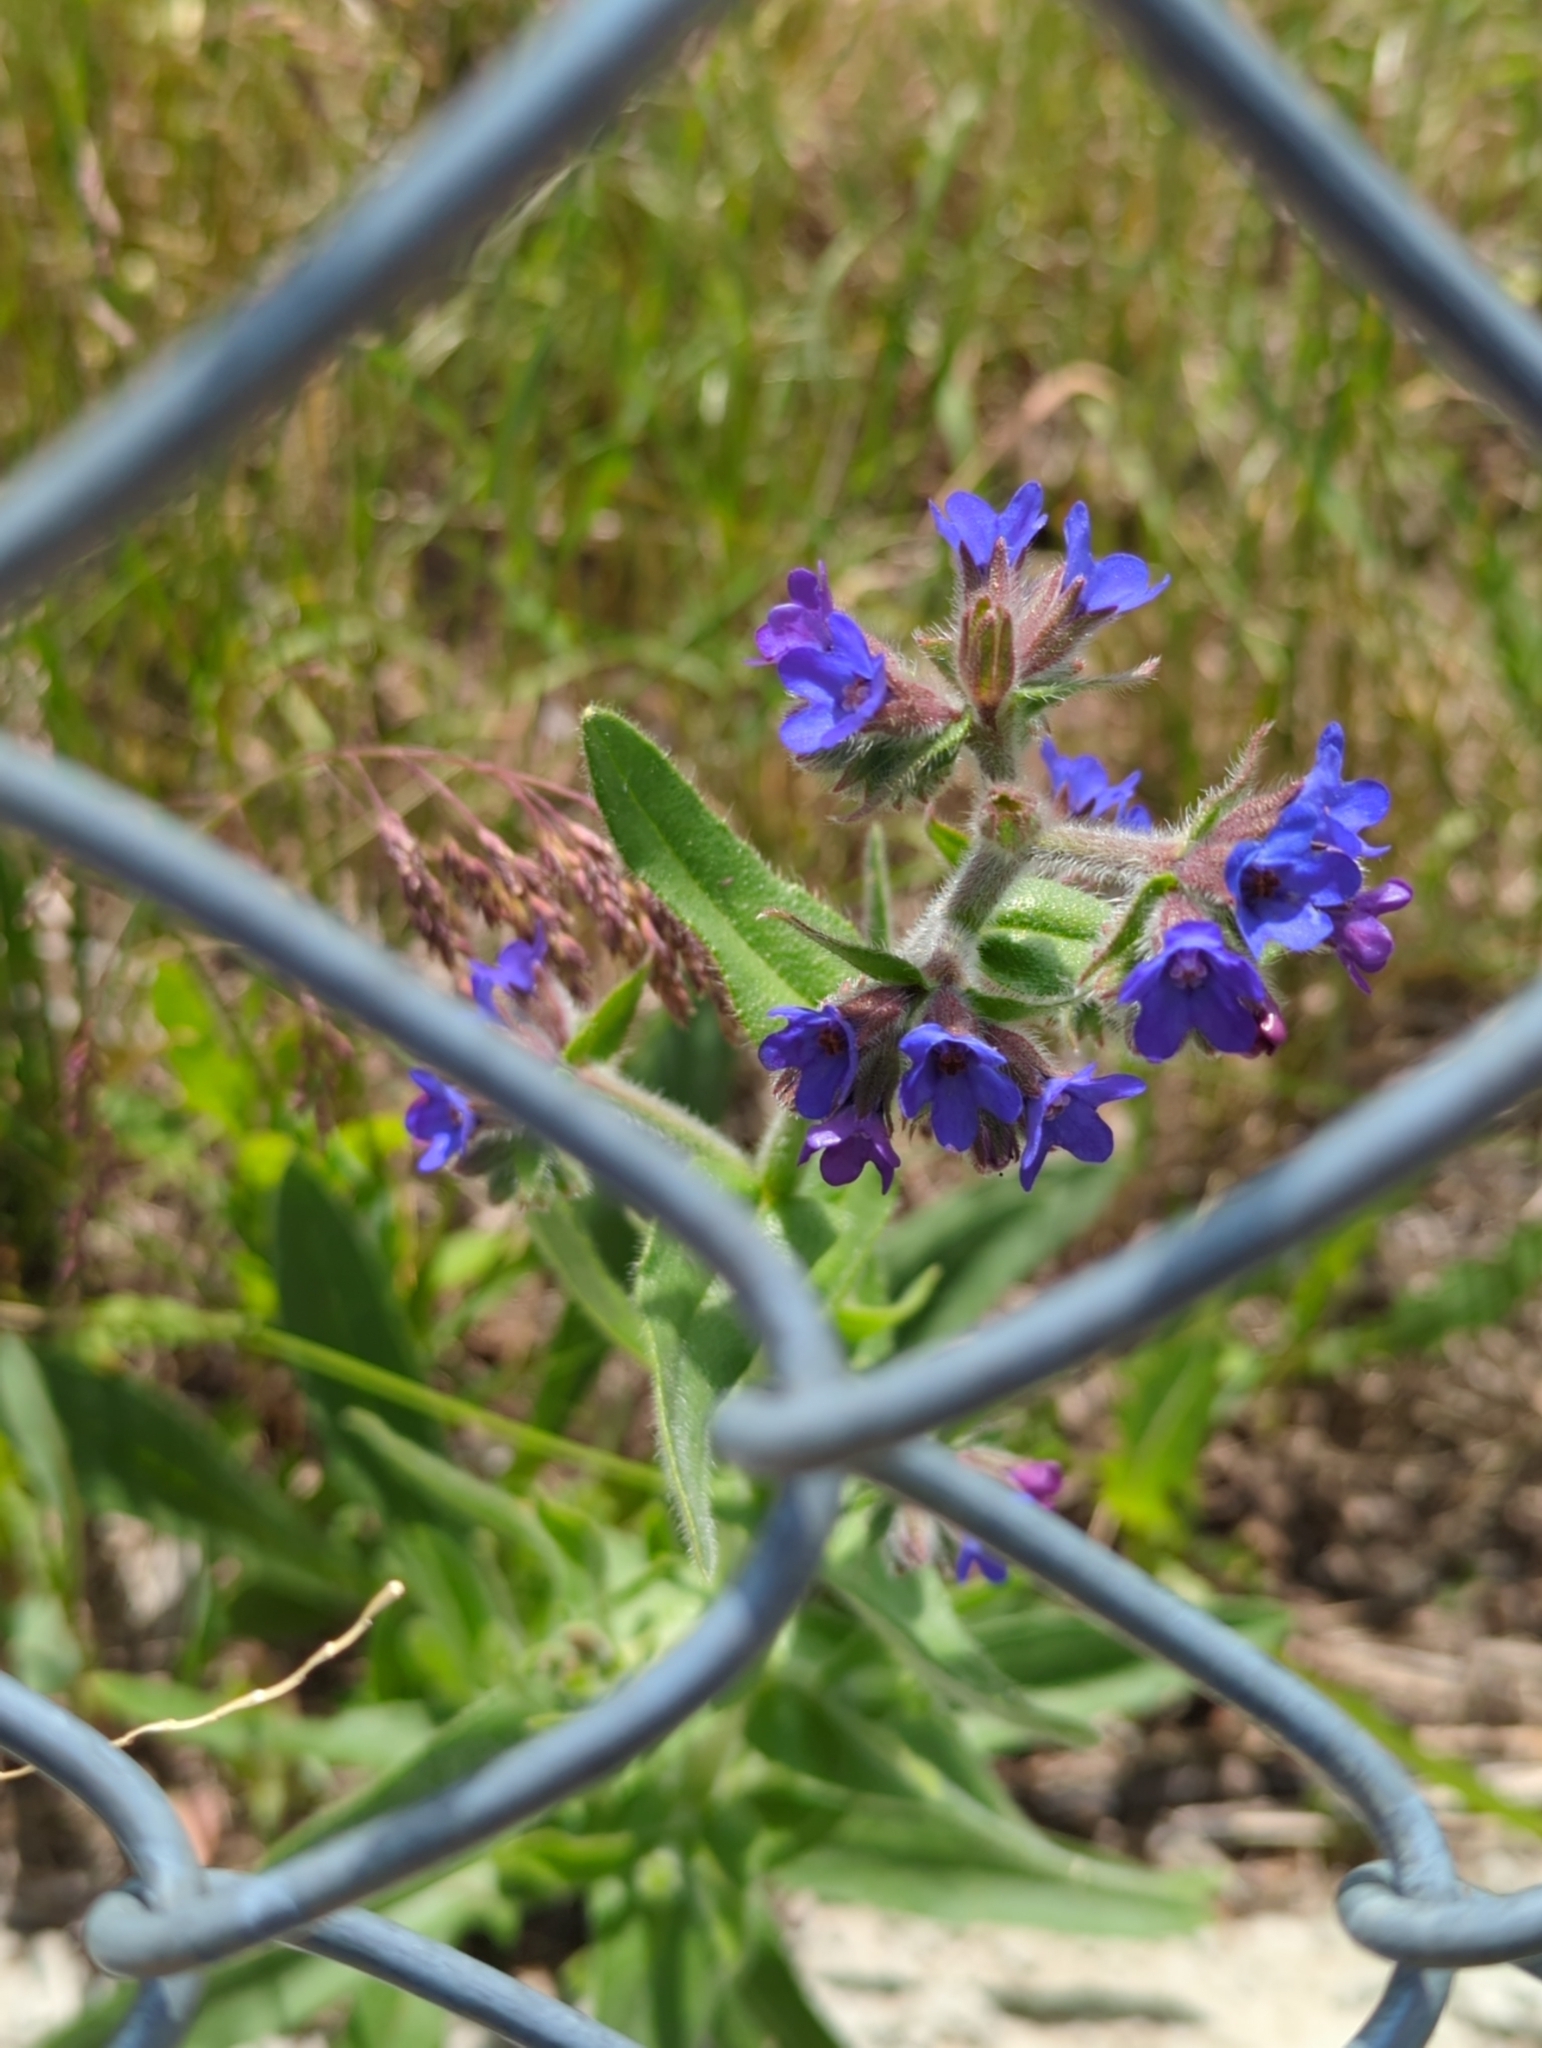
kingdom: Plantae
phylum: Tracheophyta
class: Magnoliopsida
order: Boraginales
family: Boraginaceae
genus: Anchusa
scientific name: Anchusa officinalis
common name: Alkanet
